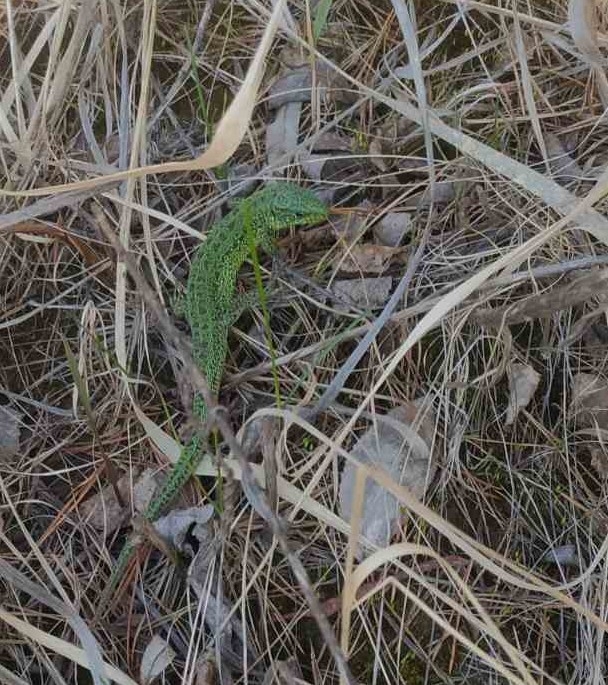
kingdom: Animalia
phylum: Chordata
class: Squamata
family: Lacertidae
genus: Lacerta
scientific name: Lacerta agilis
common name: Sand lizard
